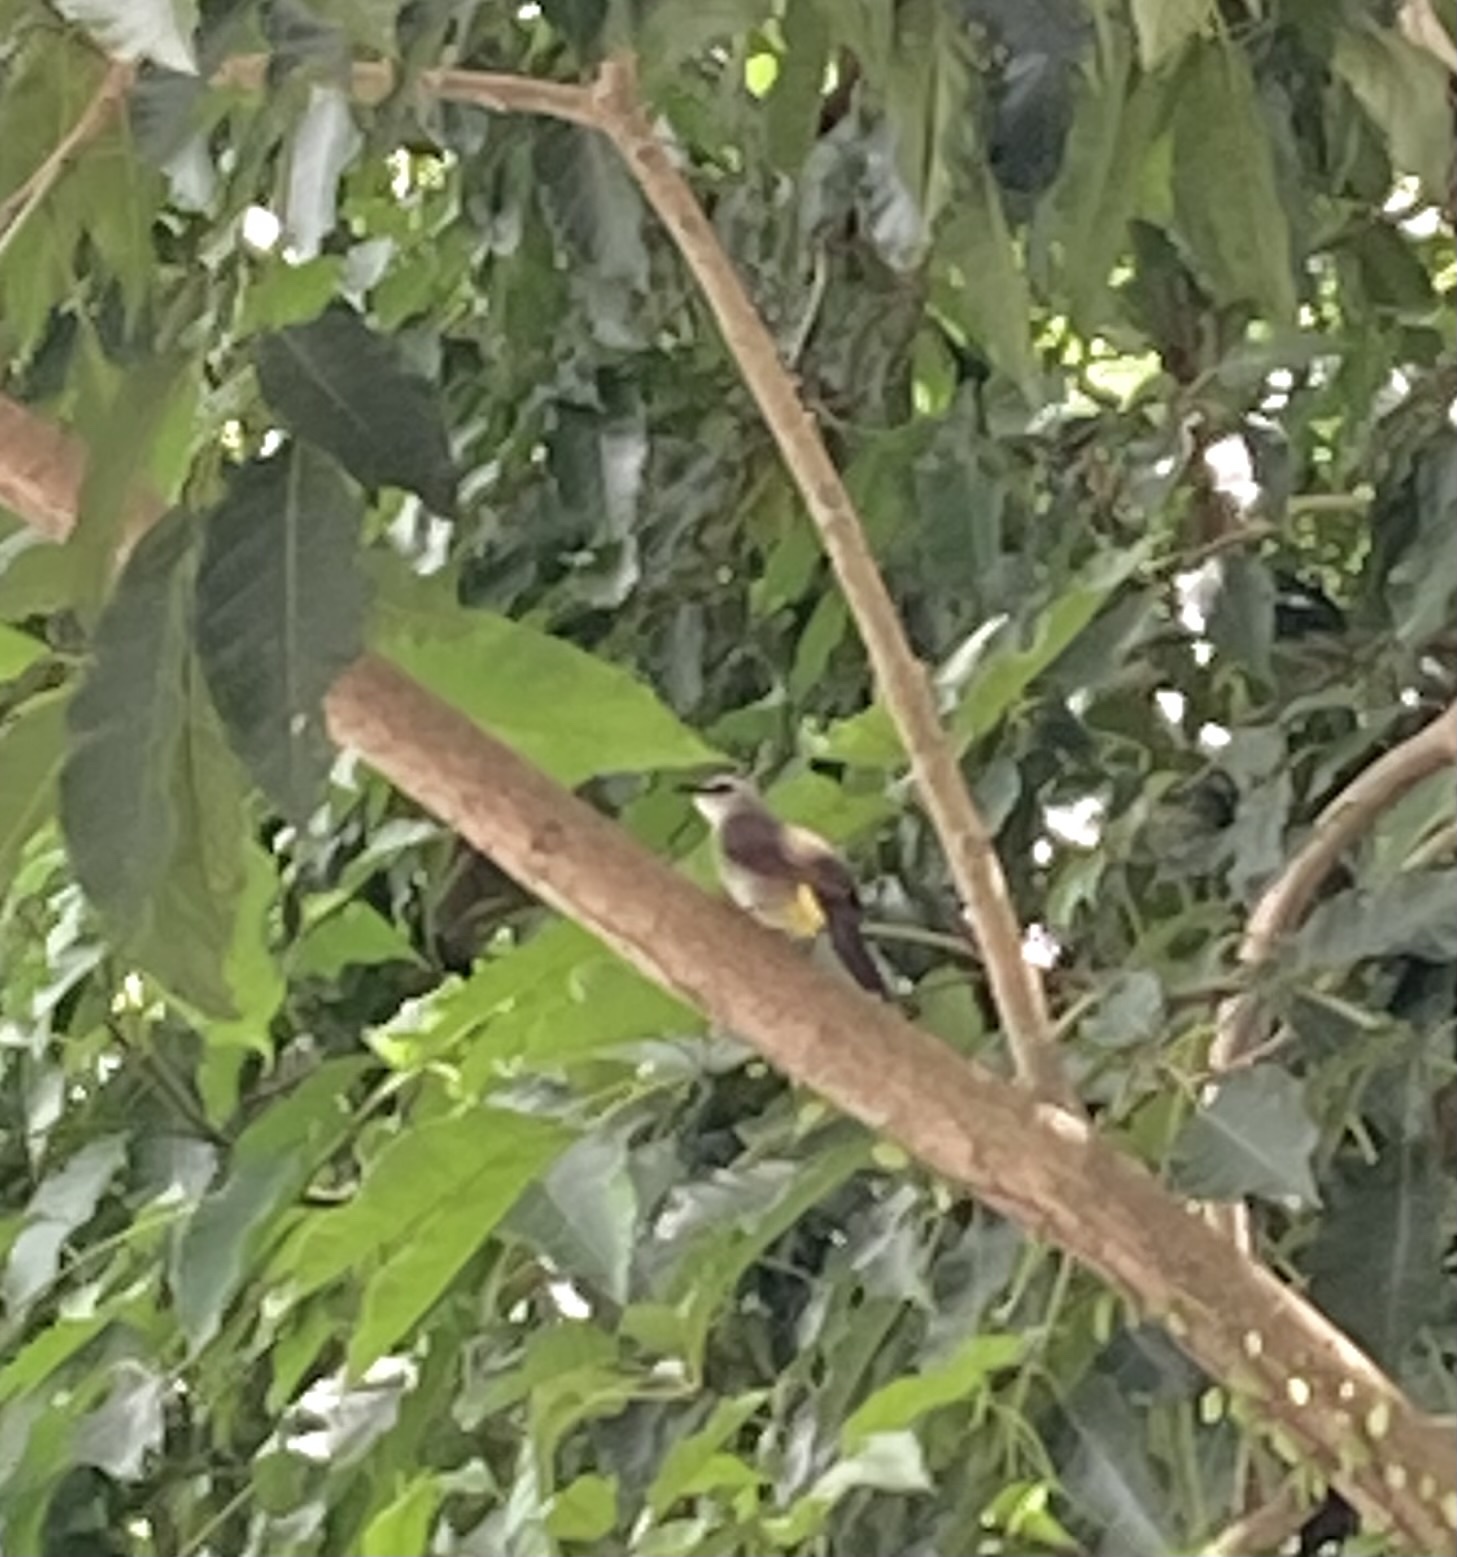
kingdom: Animalia
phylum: Chordata
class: Aves
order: Passeriformes
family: Pycnonotidae
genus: Pycnonotus
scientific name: Pycnonotus goiavier
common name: Yellow-vented bulbul
